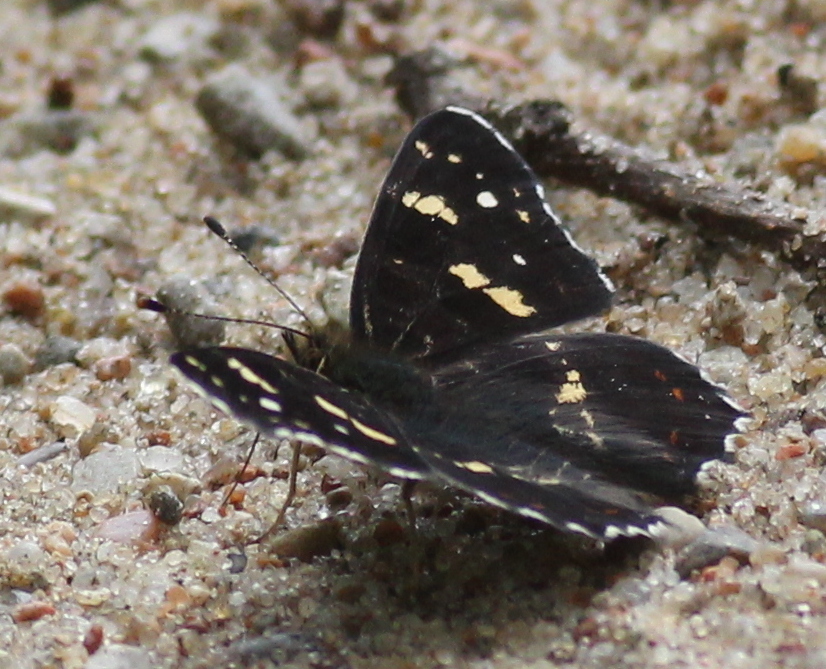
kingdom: Animalia
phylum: Arthropoda
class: Insecta
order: Lepidoptera
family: Nymphalidae
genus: Araschnia
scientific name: Araschnia levana
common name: Map butterfly
